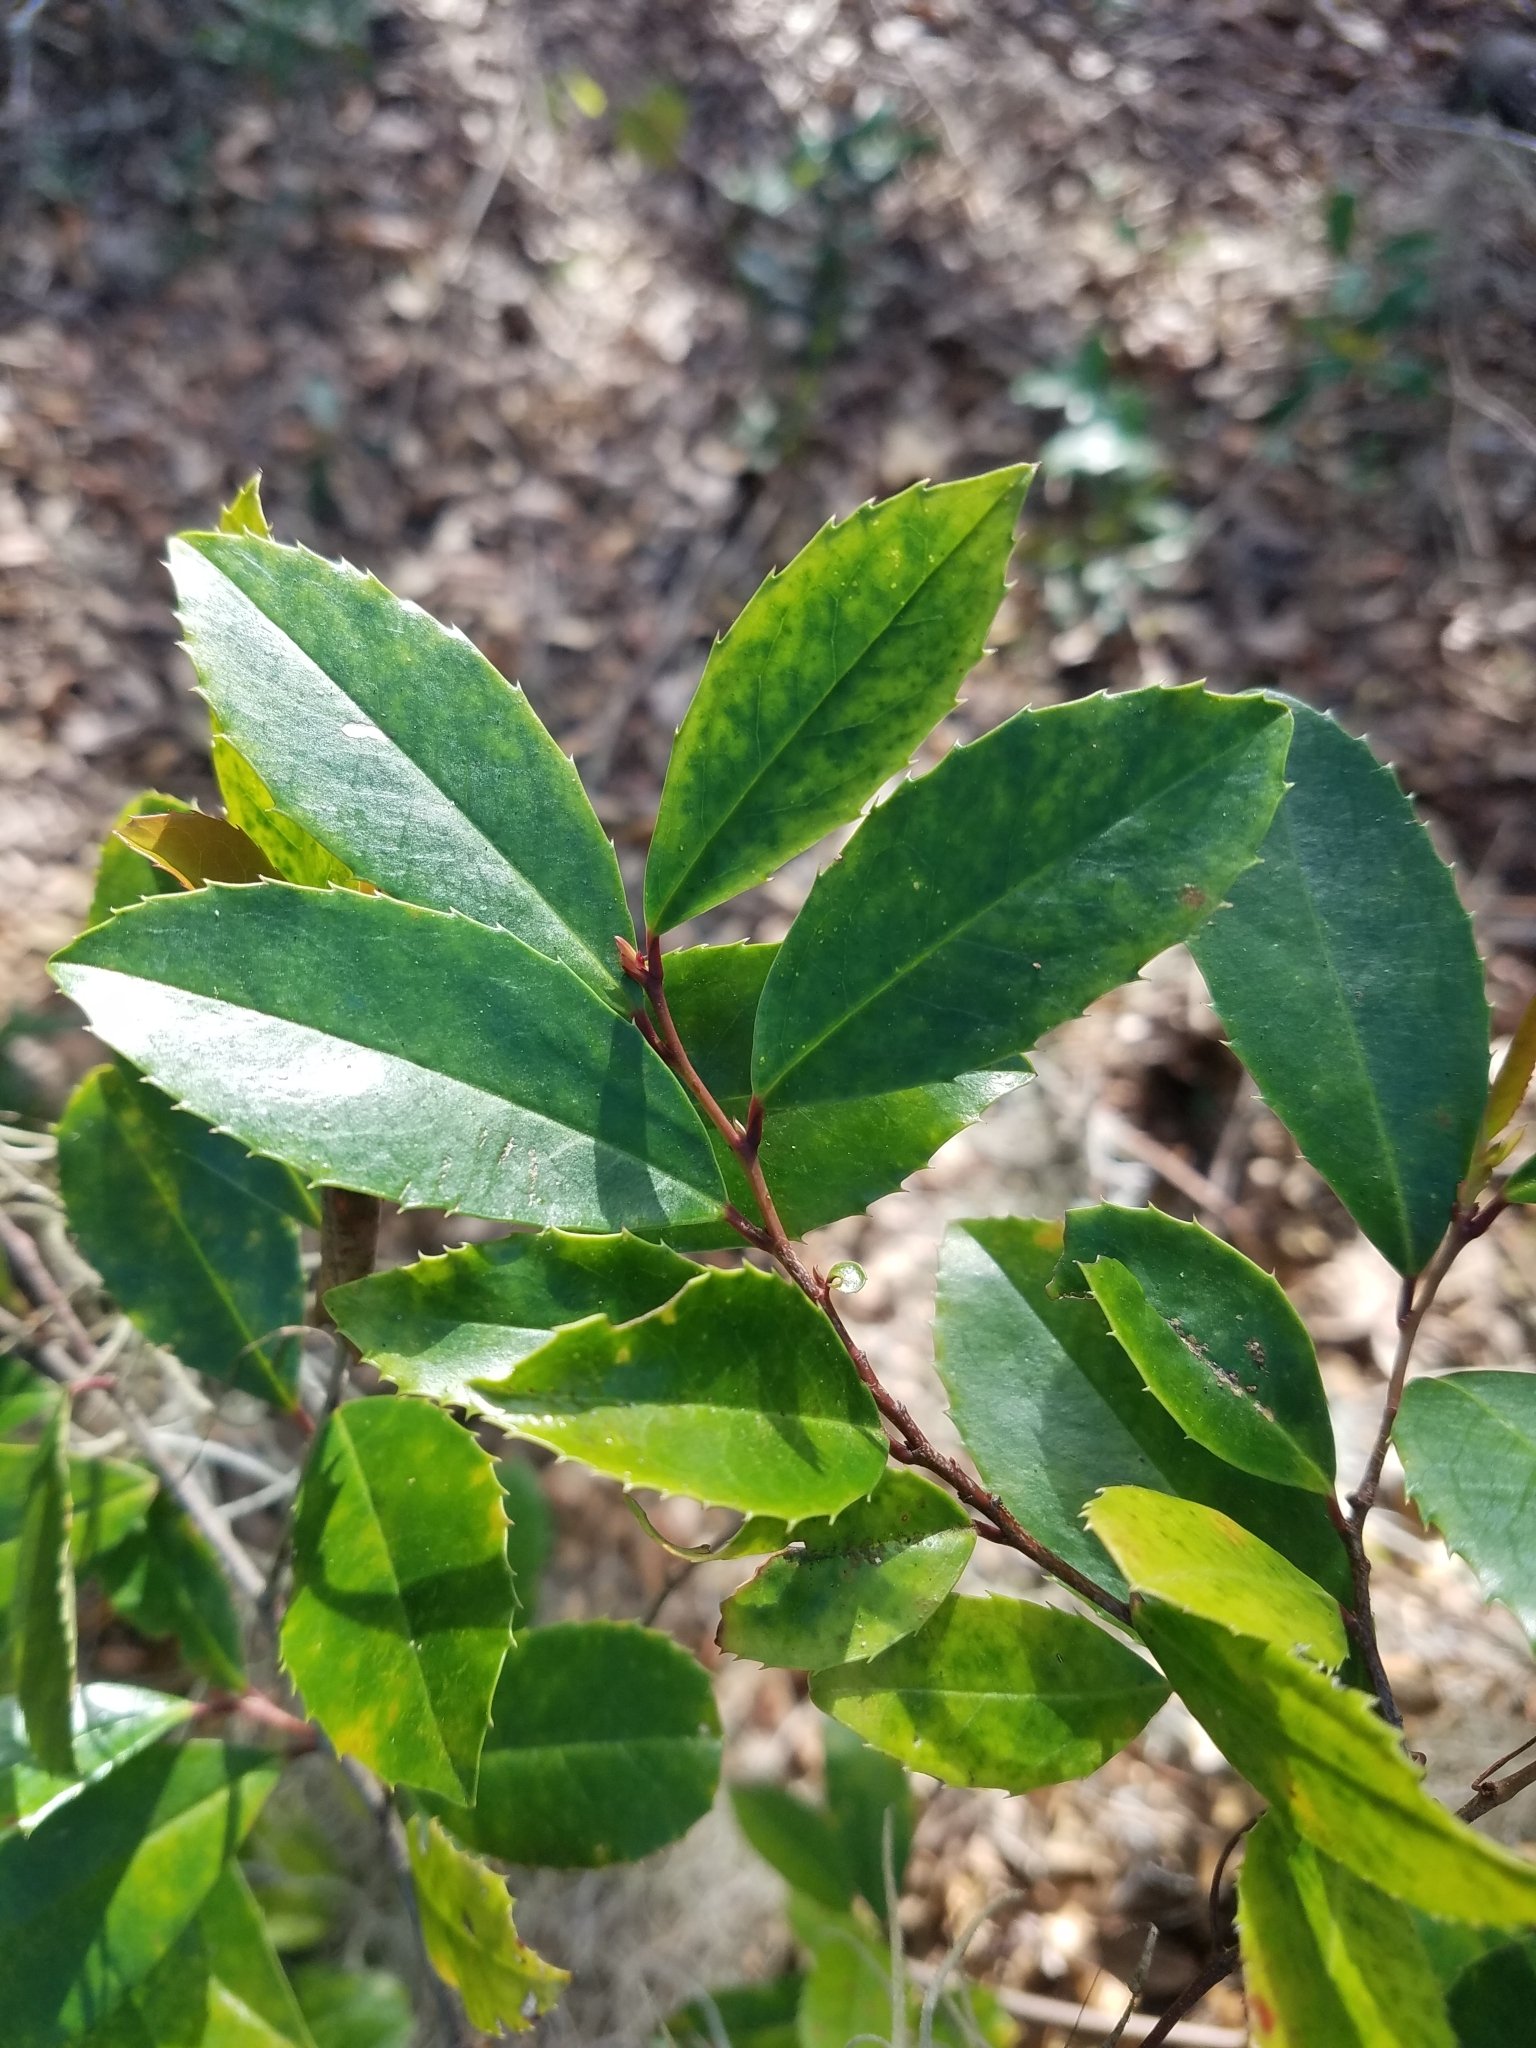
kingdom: Plantae
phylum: Tracheophyta
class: Magnoliopsida
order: Rosales
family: Rosaceae
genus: Prunus
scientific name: Prunus caroliniana
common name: Carolina laurel cherry
